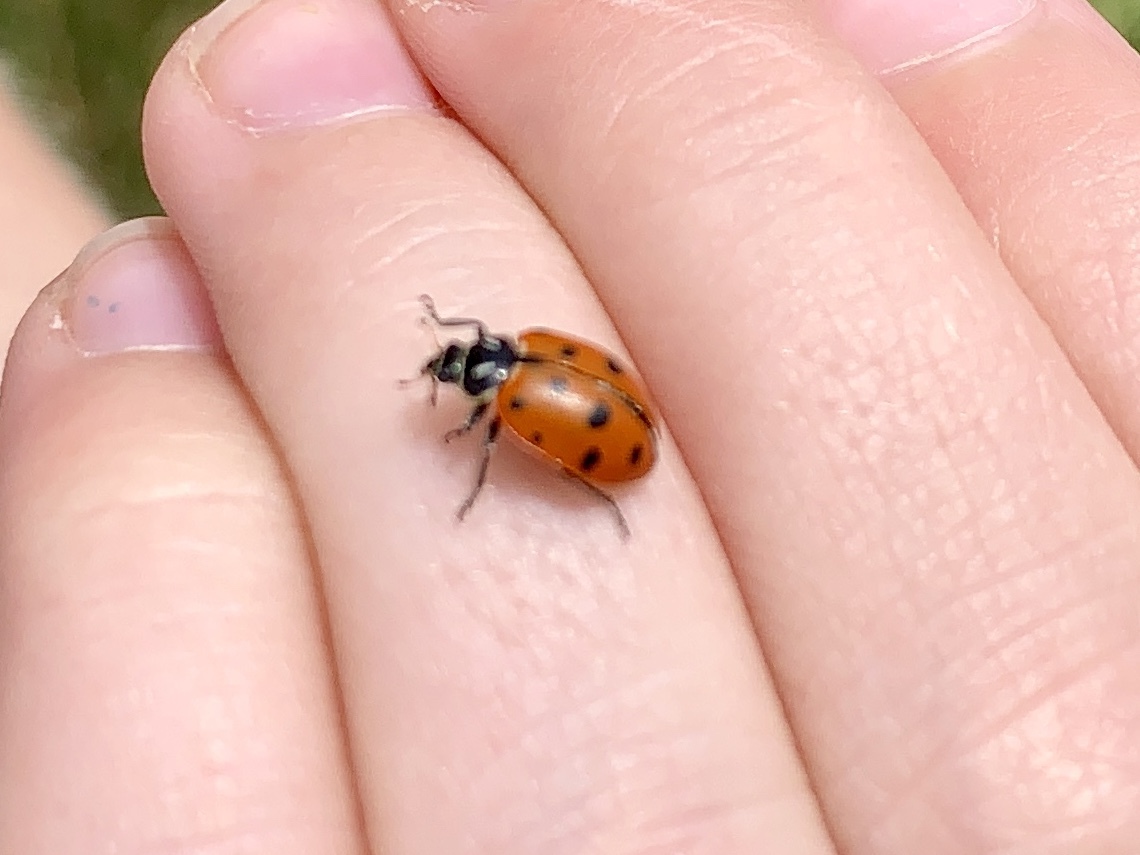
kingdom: Animalia
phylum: Arthropoda
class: Insecta
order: Coleoptera
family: Coccinellidae
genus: Hippodamia
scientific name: Hippodamia convergens
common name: Convergent lady beetle
